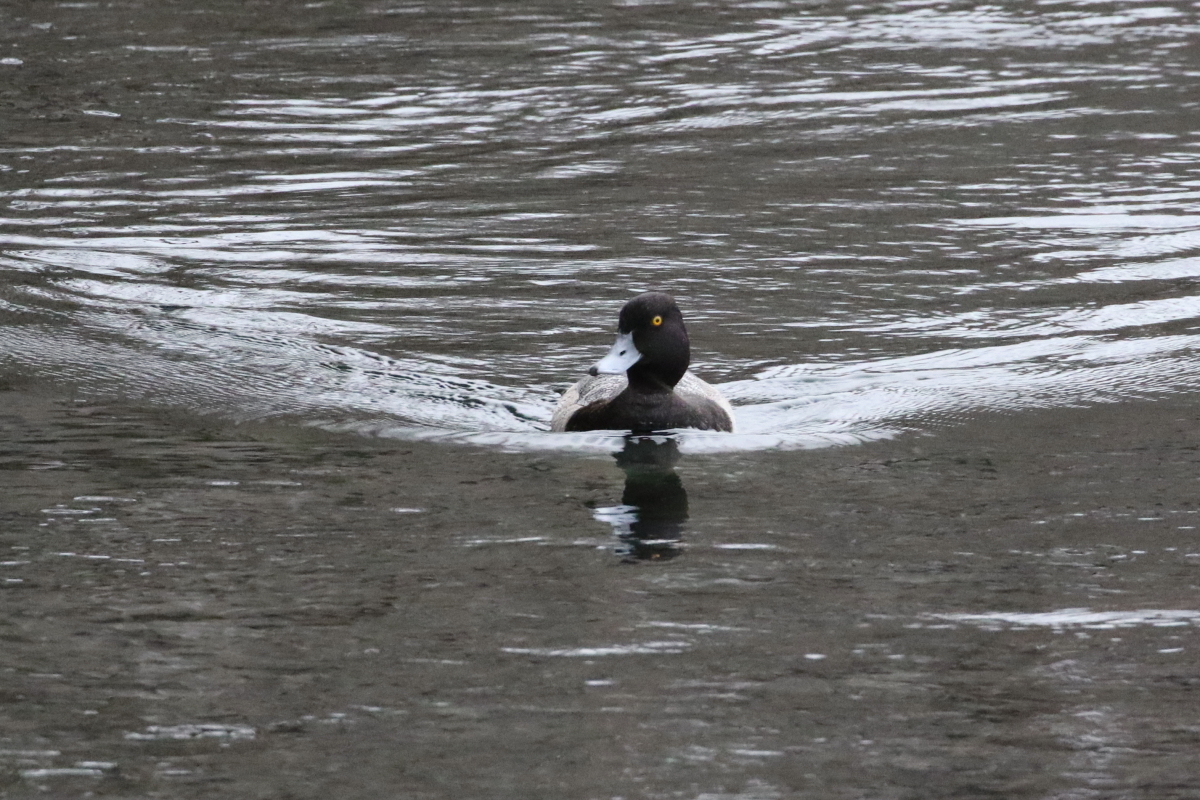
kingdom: Animalia
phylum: Chordata
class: Aves
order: Anseriformes
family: Anatidae
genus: Aythya
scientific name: Aythya affinis
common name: Lesser scaup
